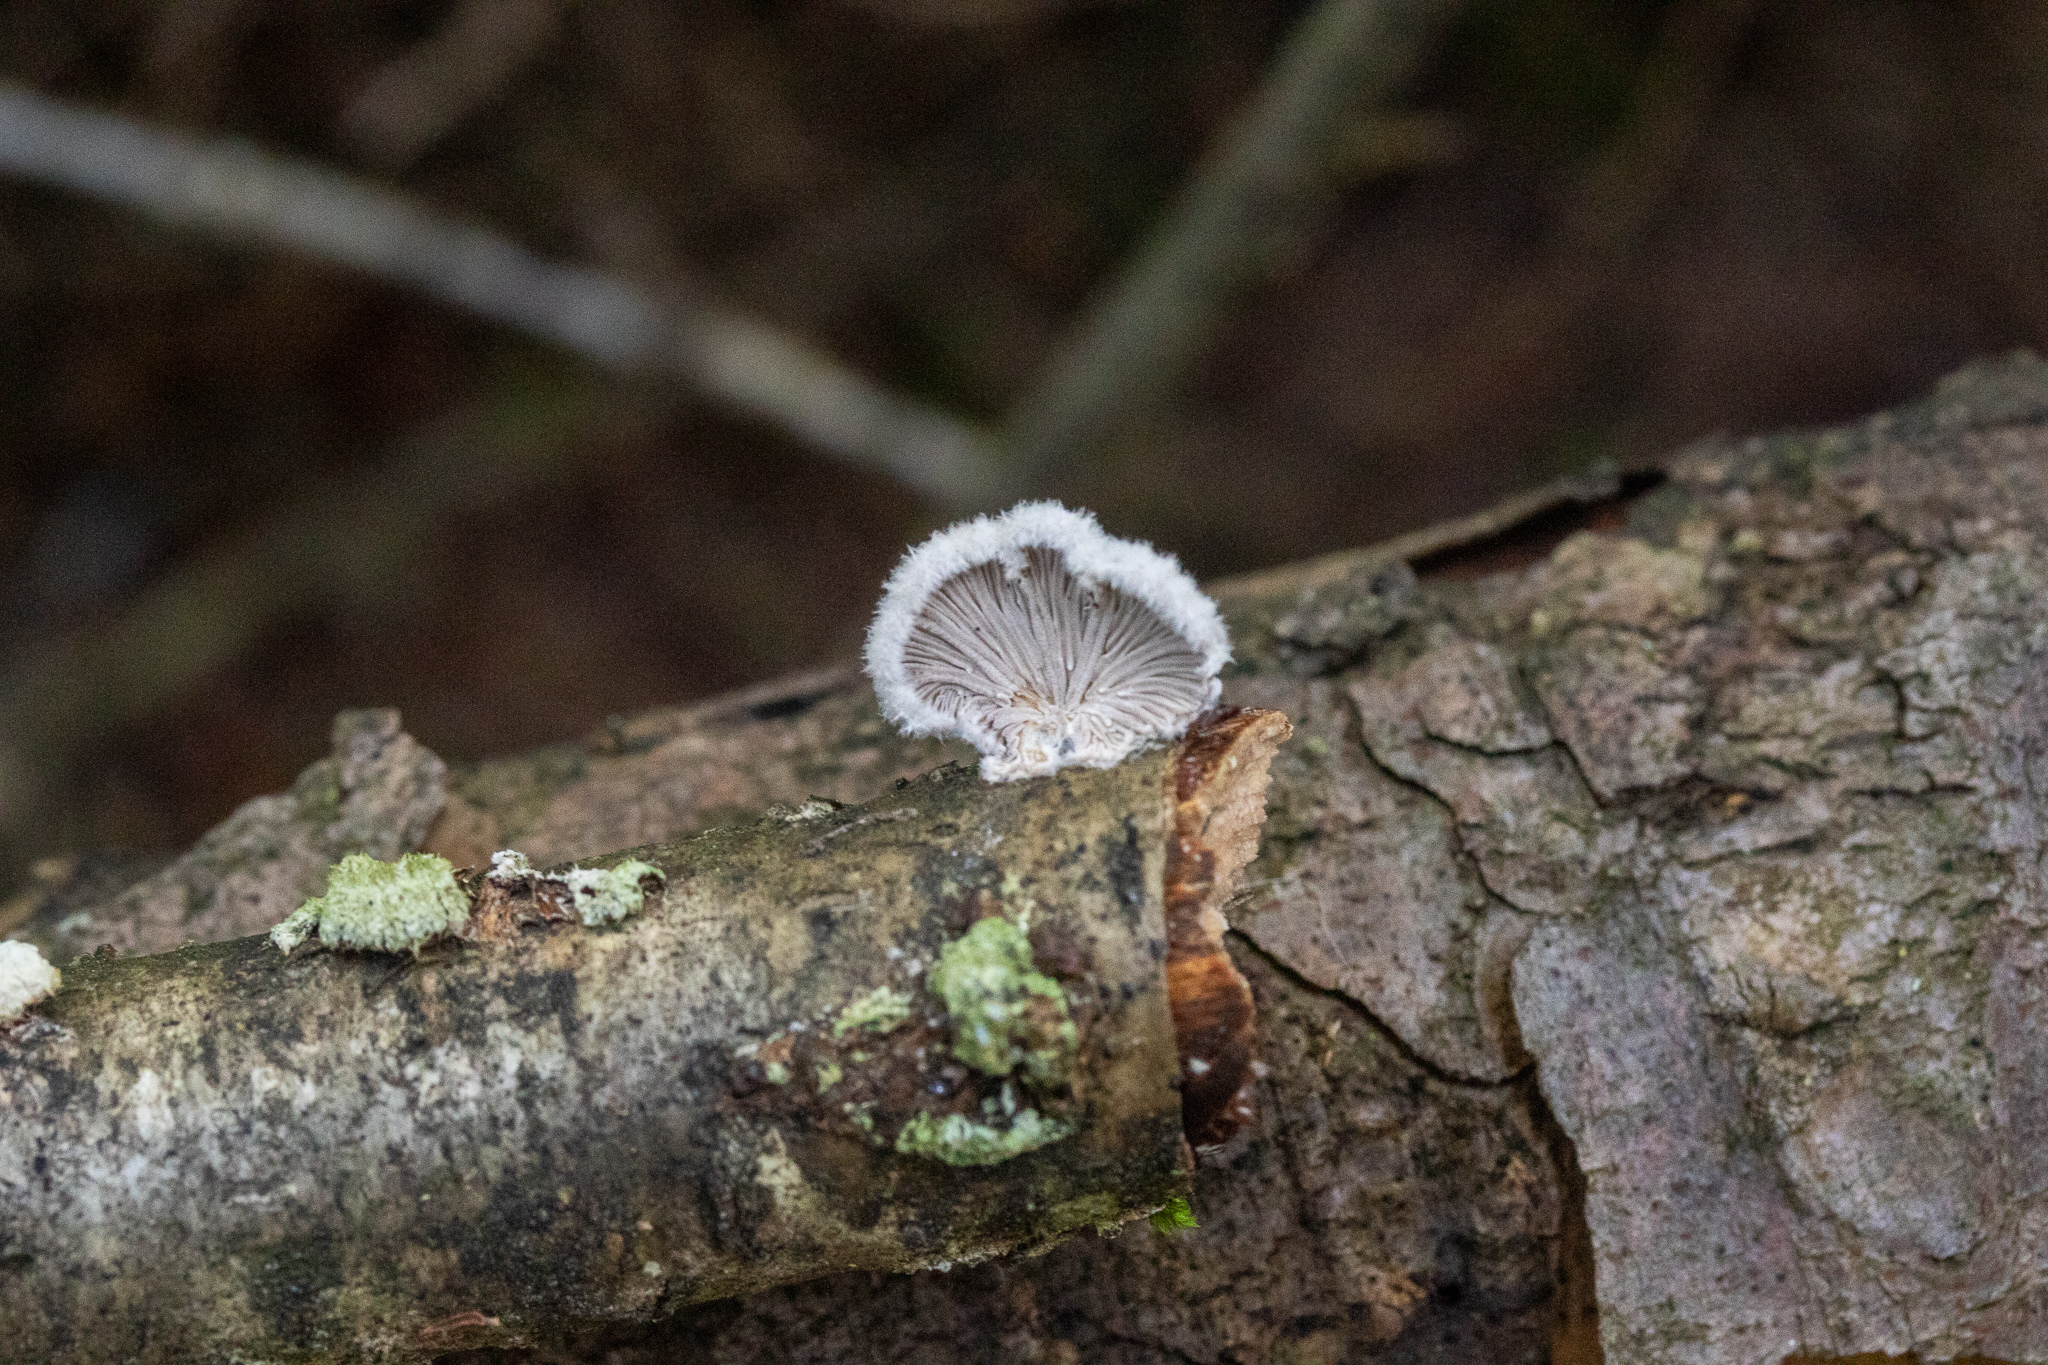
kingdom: Fungi
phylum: Basidiomycota
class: Agaricomycetes
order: Agaricales
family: Schizophyllaceae
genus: Schizophyllum
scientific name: Schizophyllum commune
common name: Common porecrust
